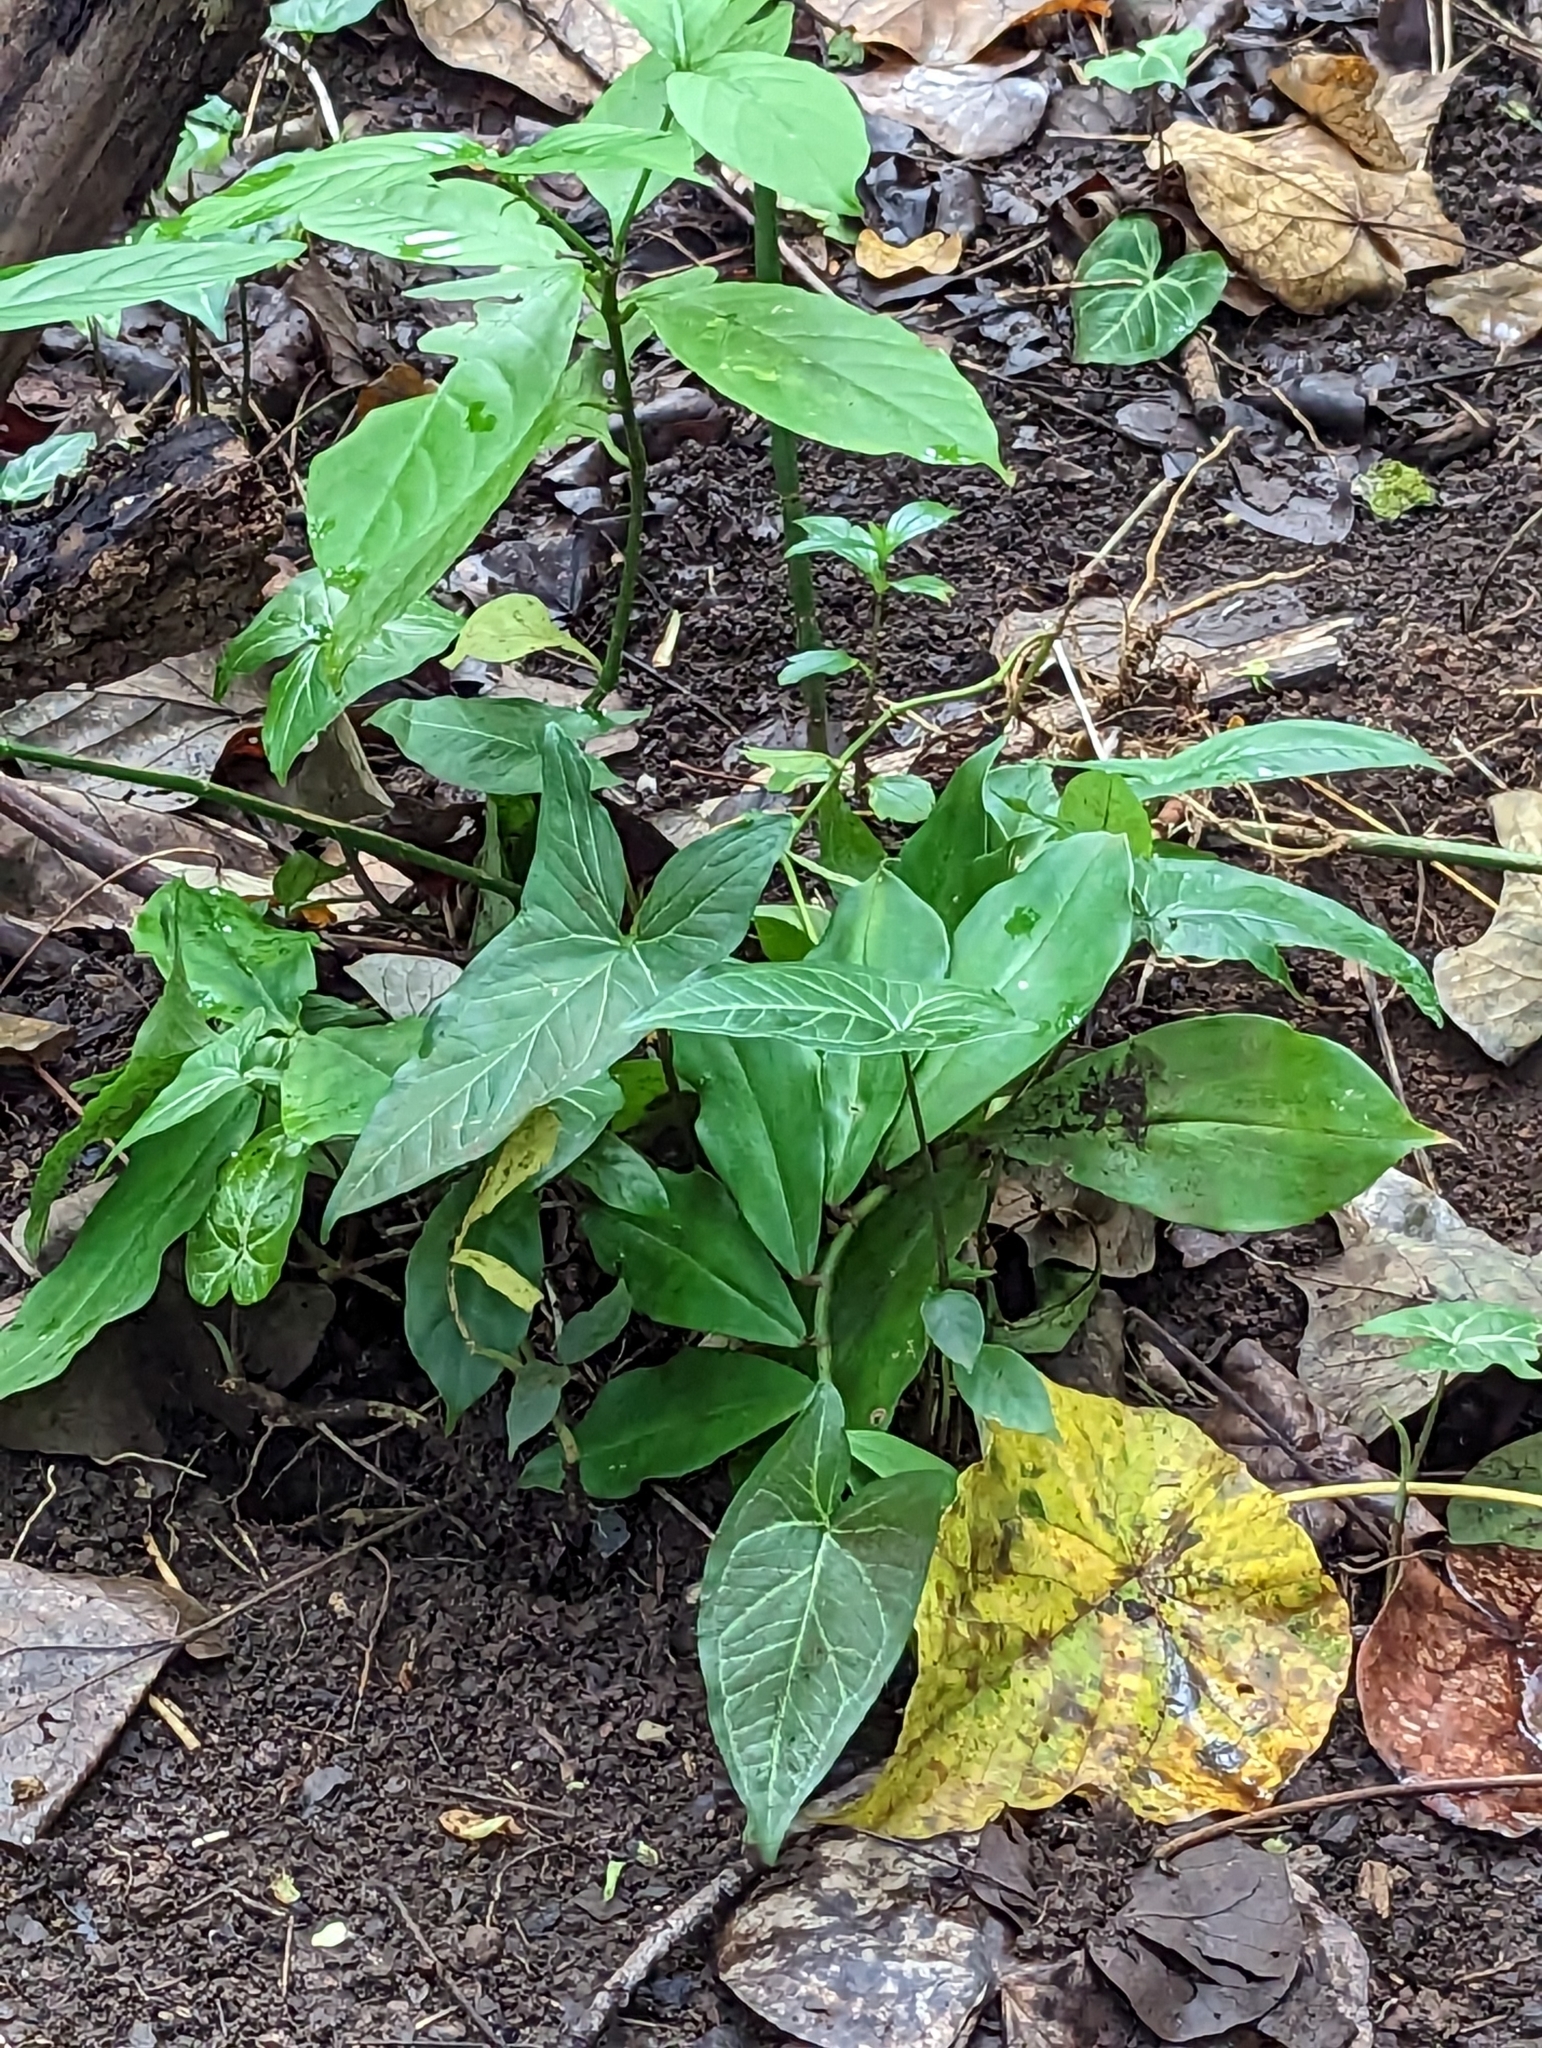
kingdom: Plantae
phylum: Tracheophyta
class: Liliopsida
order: Alismatales
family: Araceae
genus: Syngonium
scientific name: Syngonium podophyllum
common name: American evergreen
